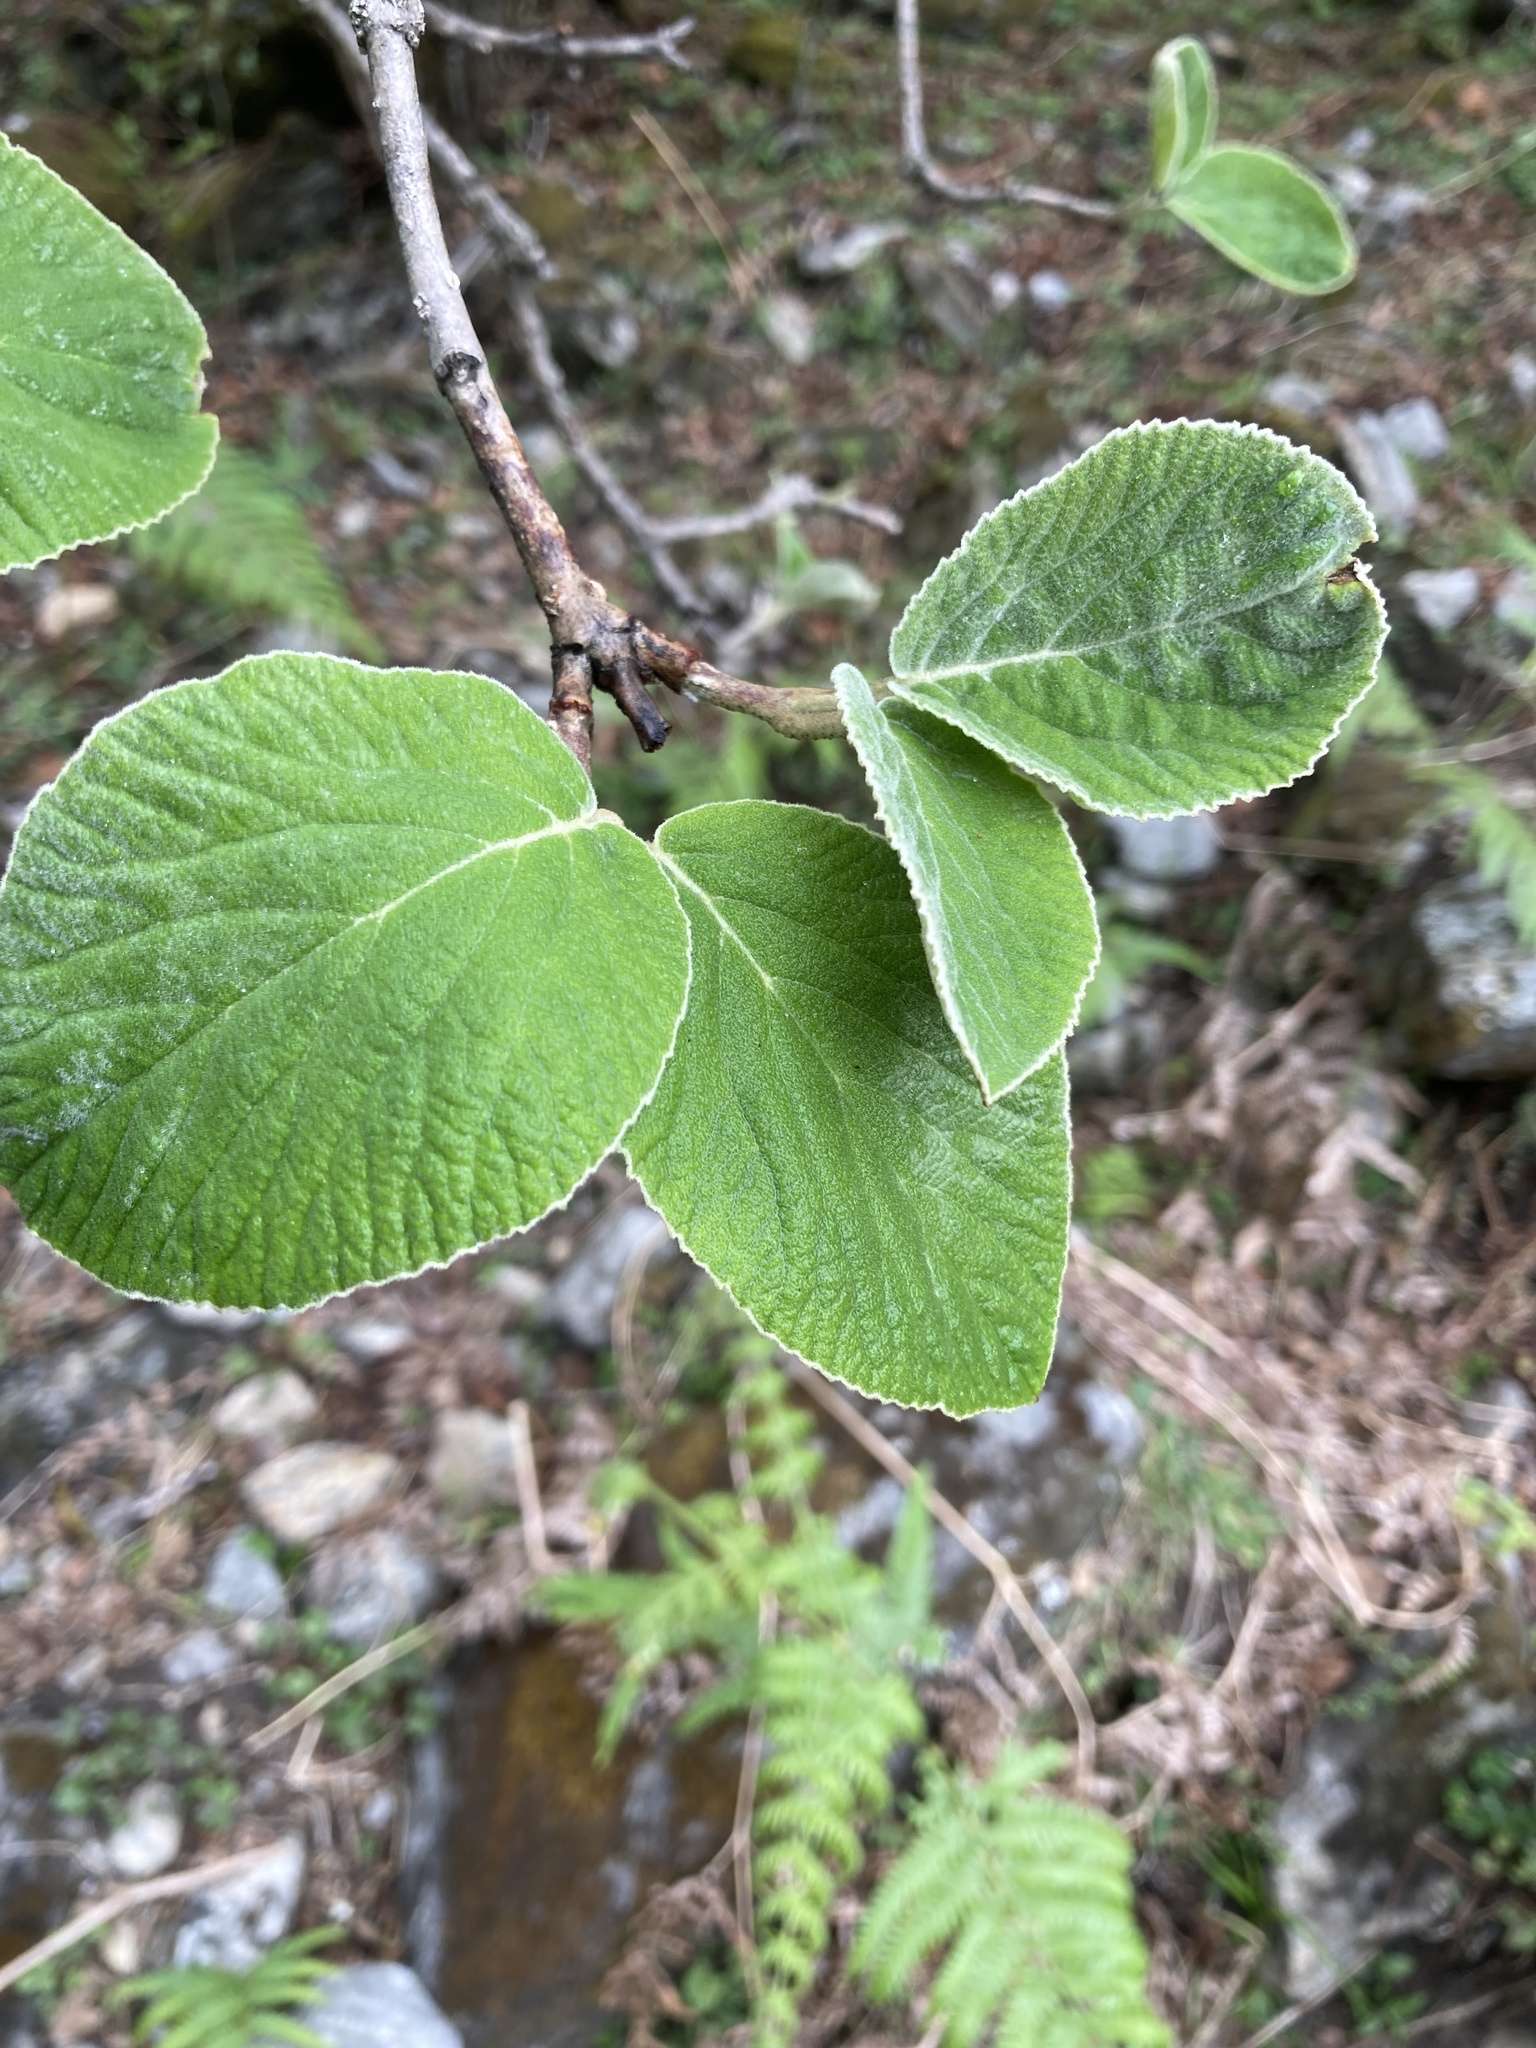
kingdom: Plantae
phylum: Tracheophyta
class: Magnoliopsida
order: Dipsacales
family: Viburnaceae
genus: Viburnum
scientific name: Viburnum cotinifolium
